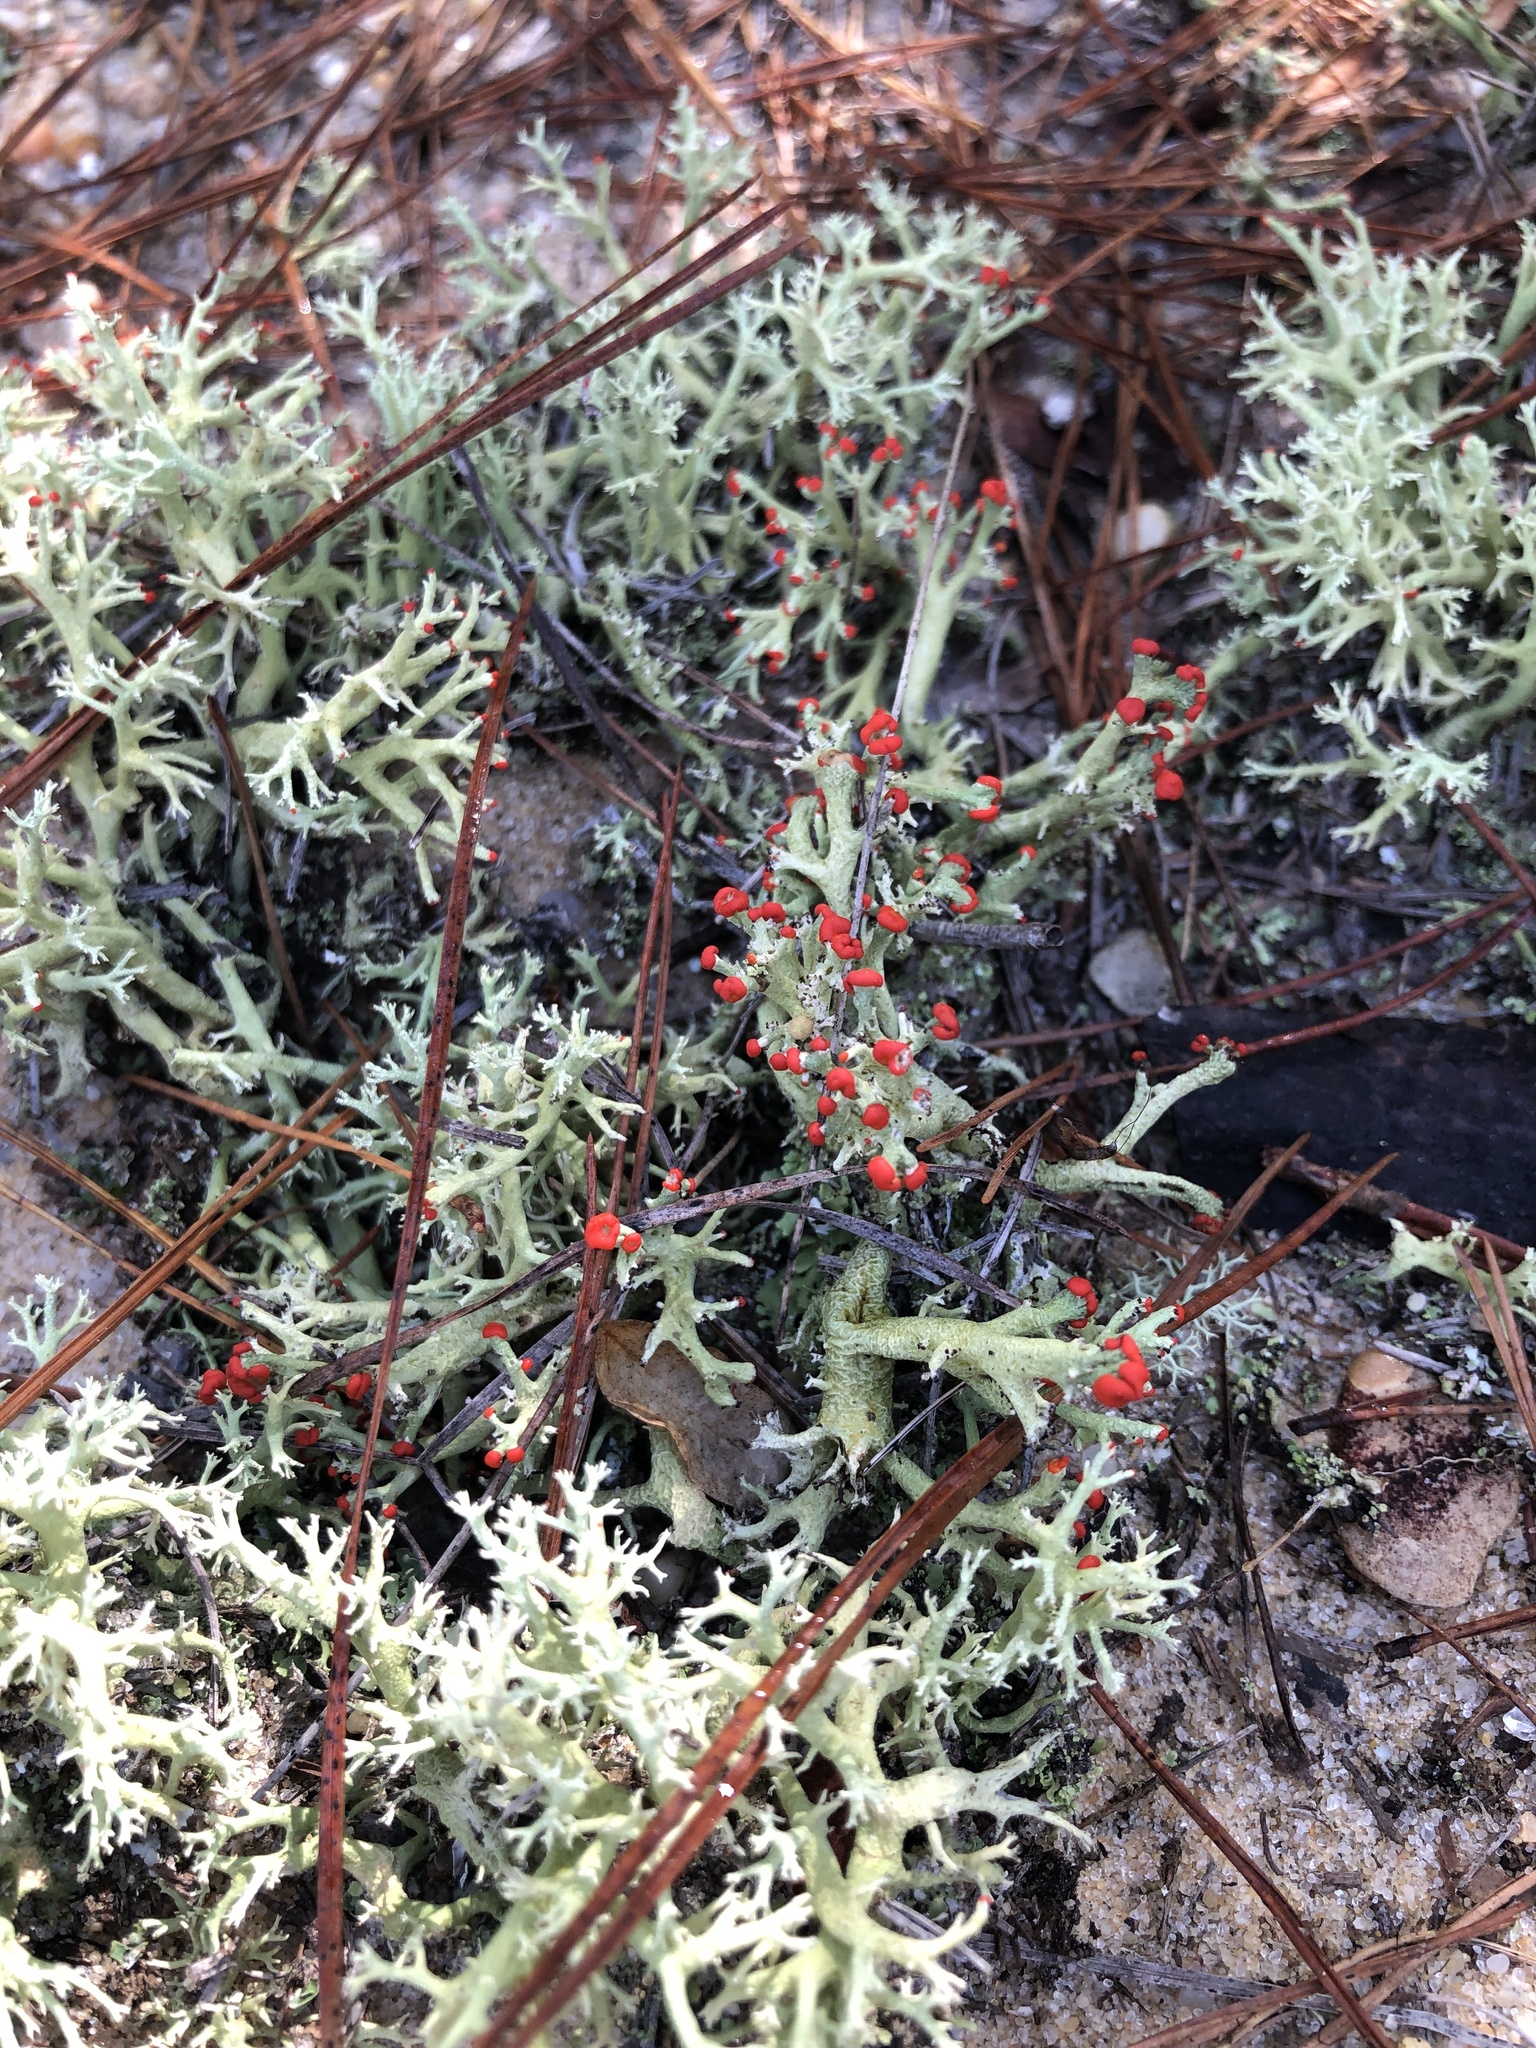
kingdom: Fungi
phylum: Ascomycota
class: Lecanoromycetes
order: Lecanorales
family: Cladoniaceae
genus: Cladonia
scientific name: Cladonia leporina
